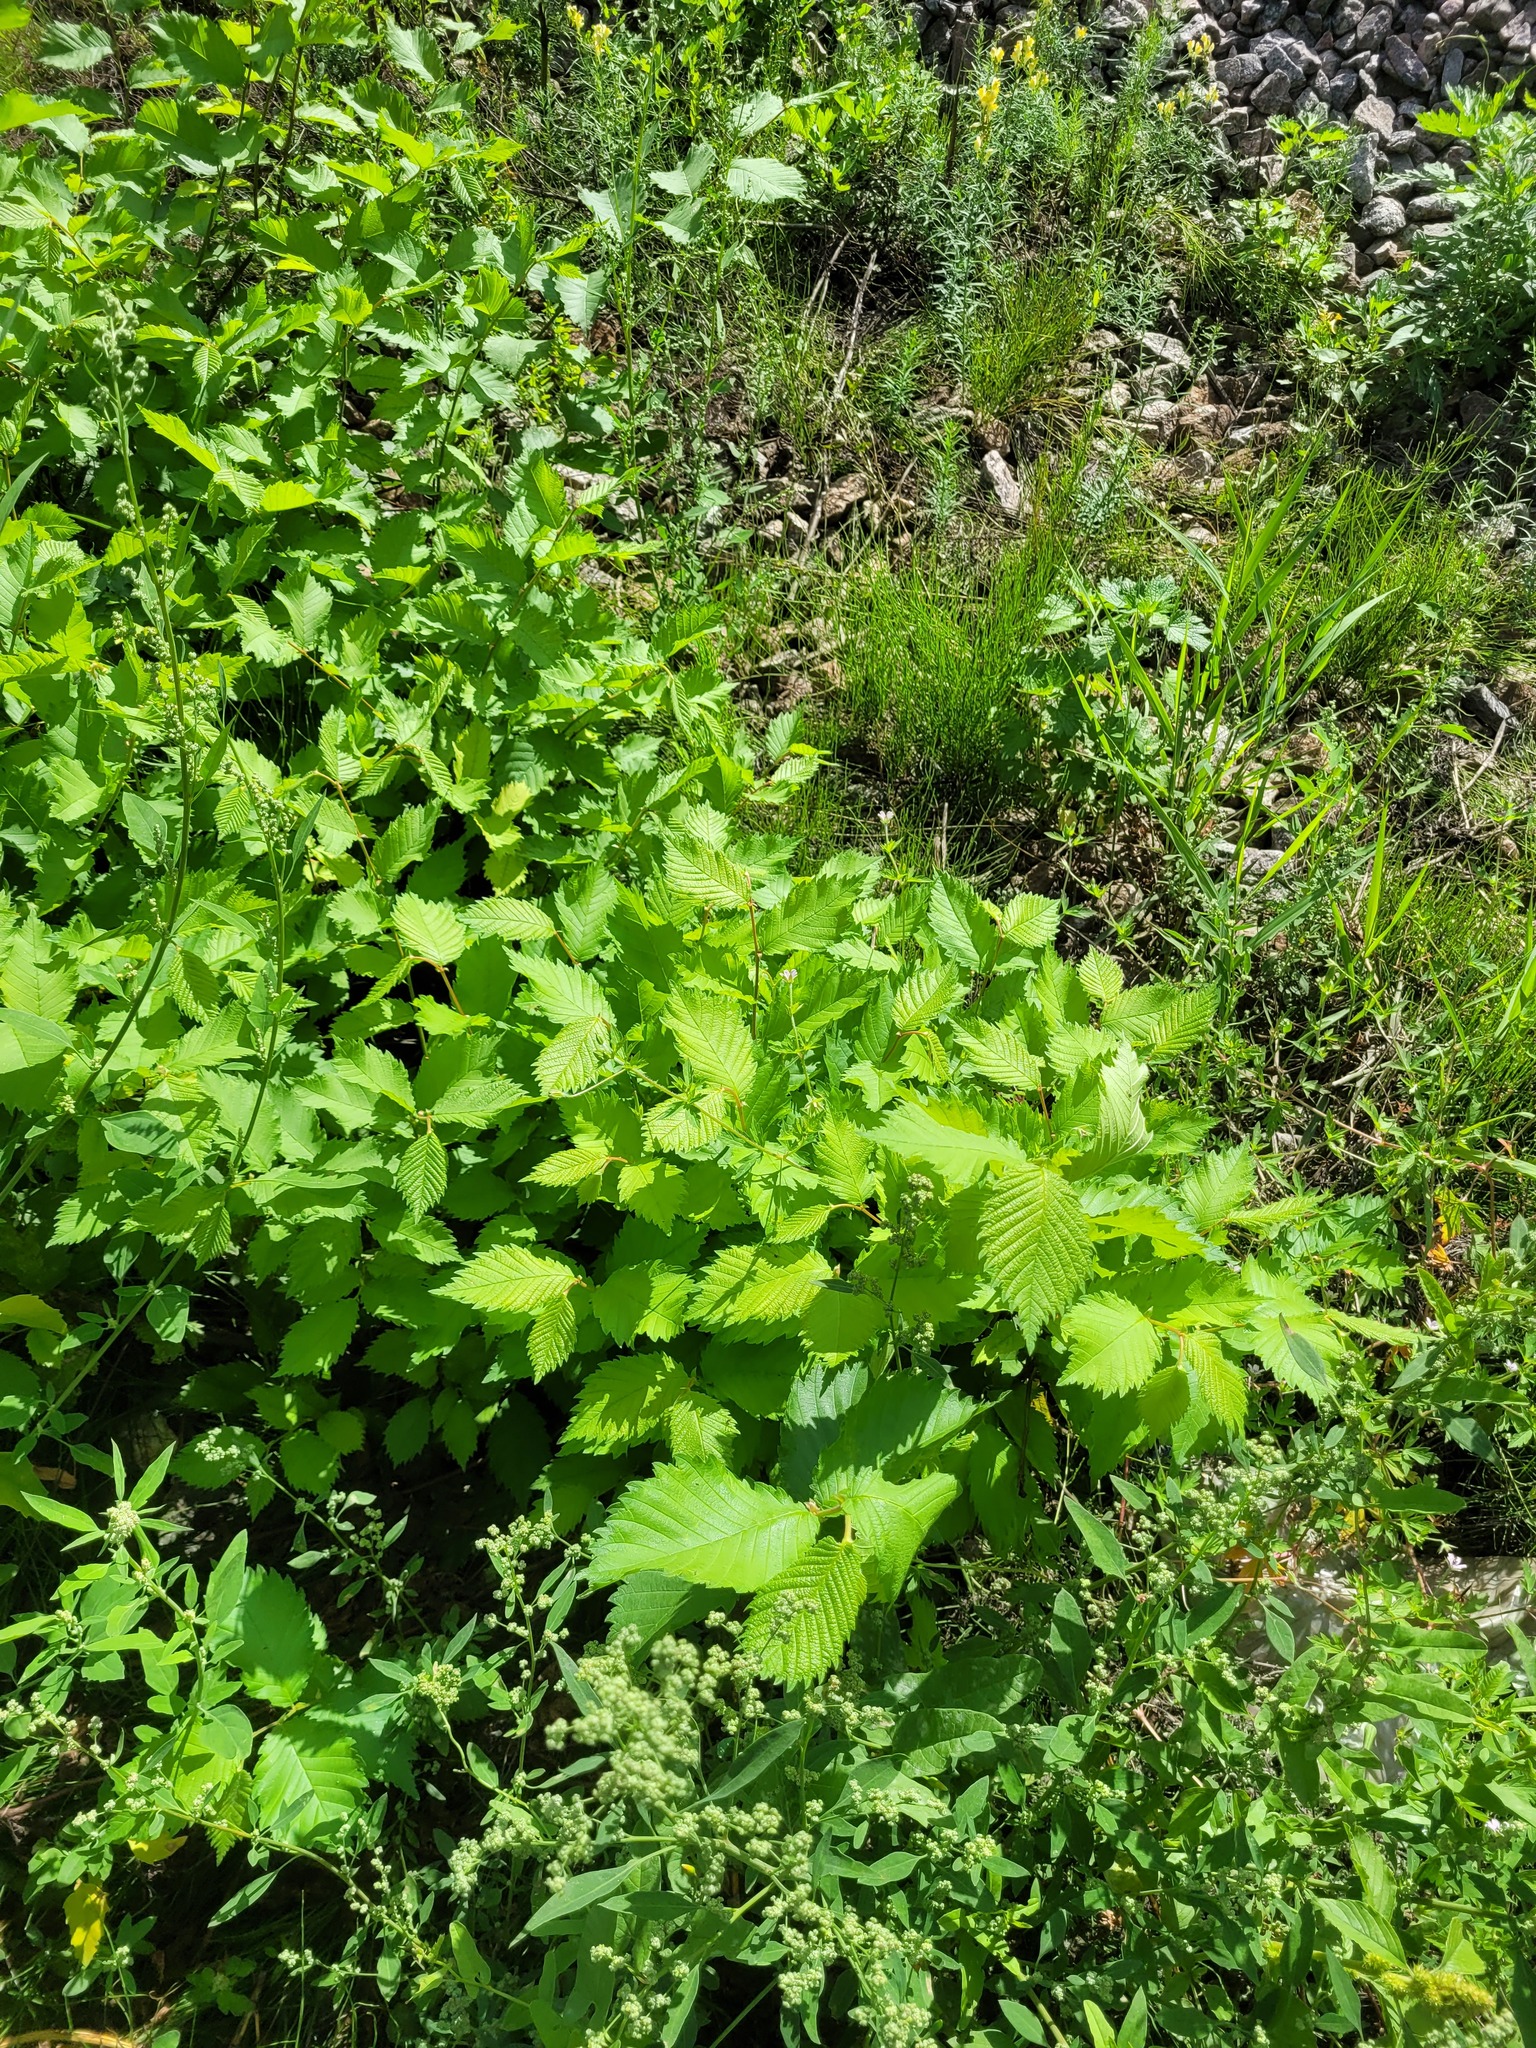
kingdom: Plantae
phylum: Tracheophyta
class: Magnoliopsida
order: Rosales
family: Ulmaceae
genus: Ulmus
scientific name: Ulmus laevis
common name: European white-elm
